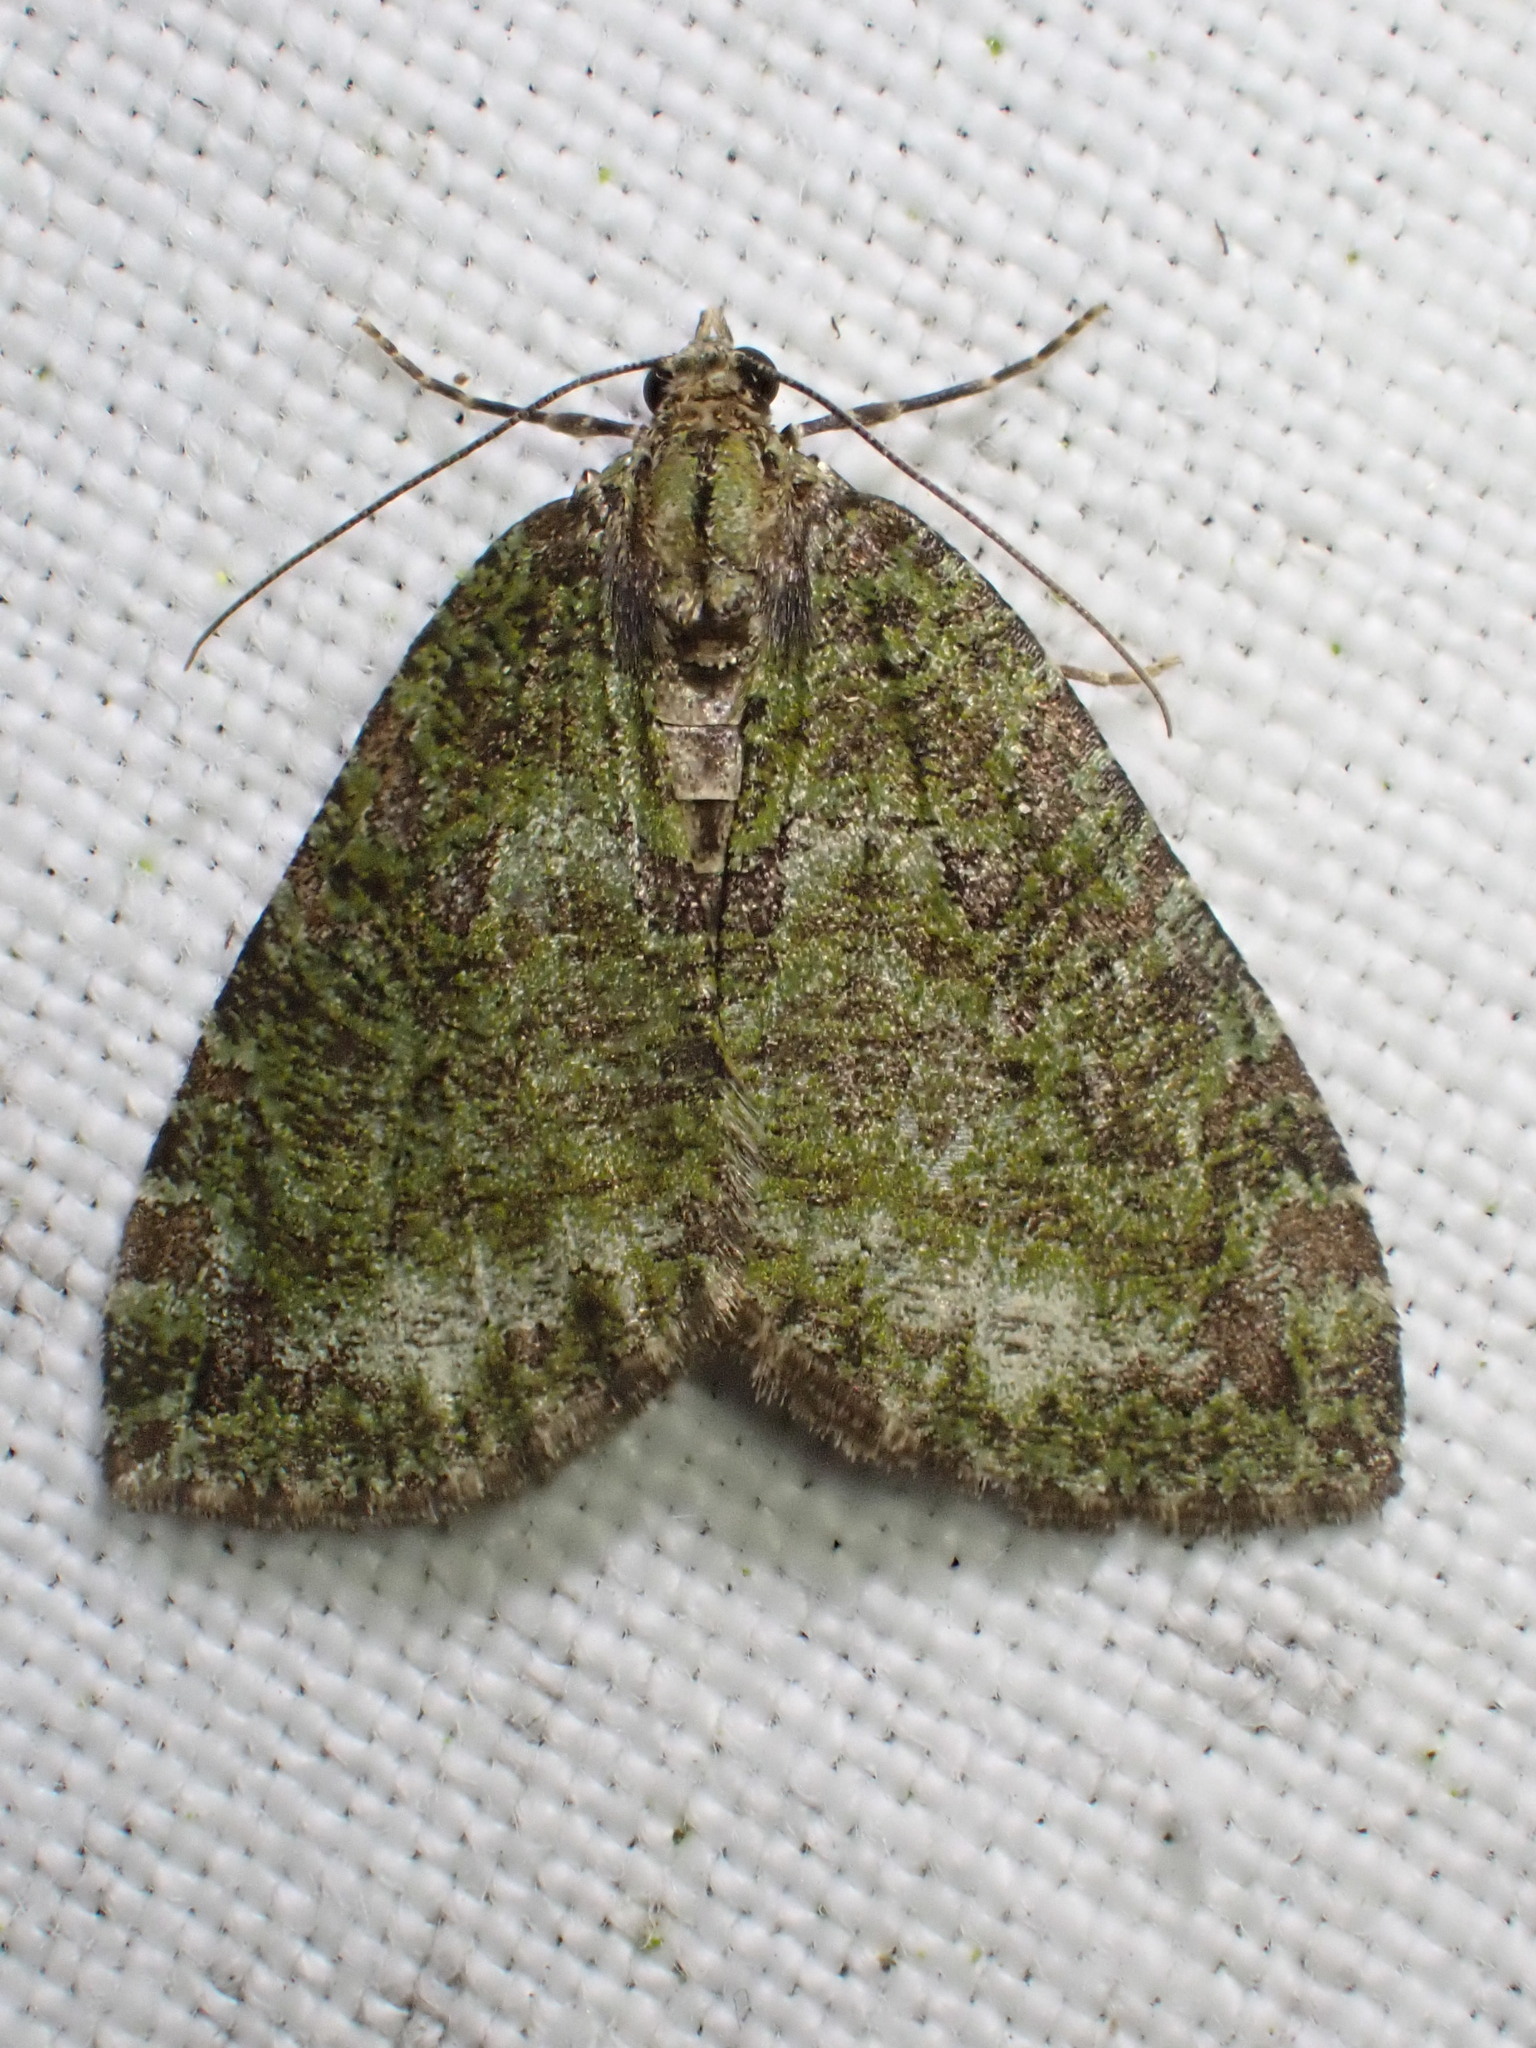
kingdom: Animalia
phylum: Arthropoda
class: Insecta
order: Lepidoptera
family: Geometridae
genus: Hydriomena
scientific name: Hydriomena furcata
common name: July highflyer
